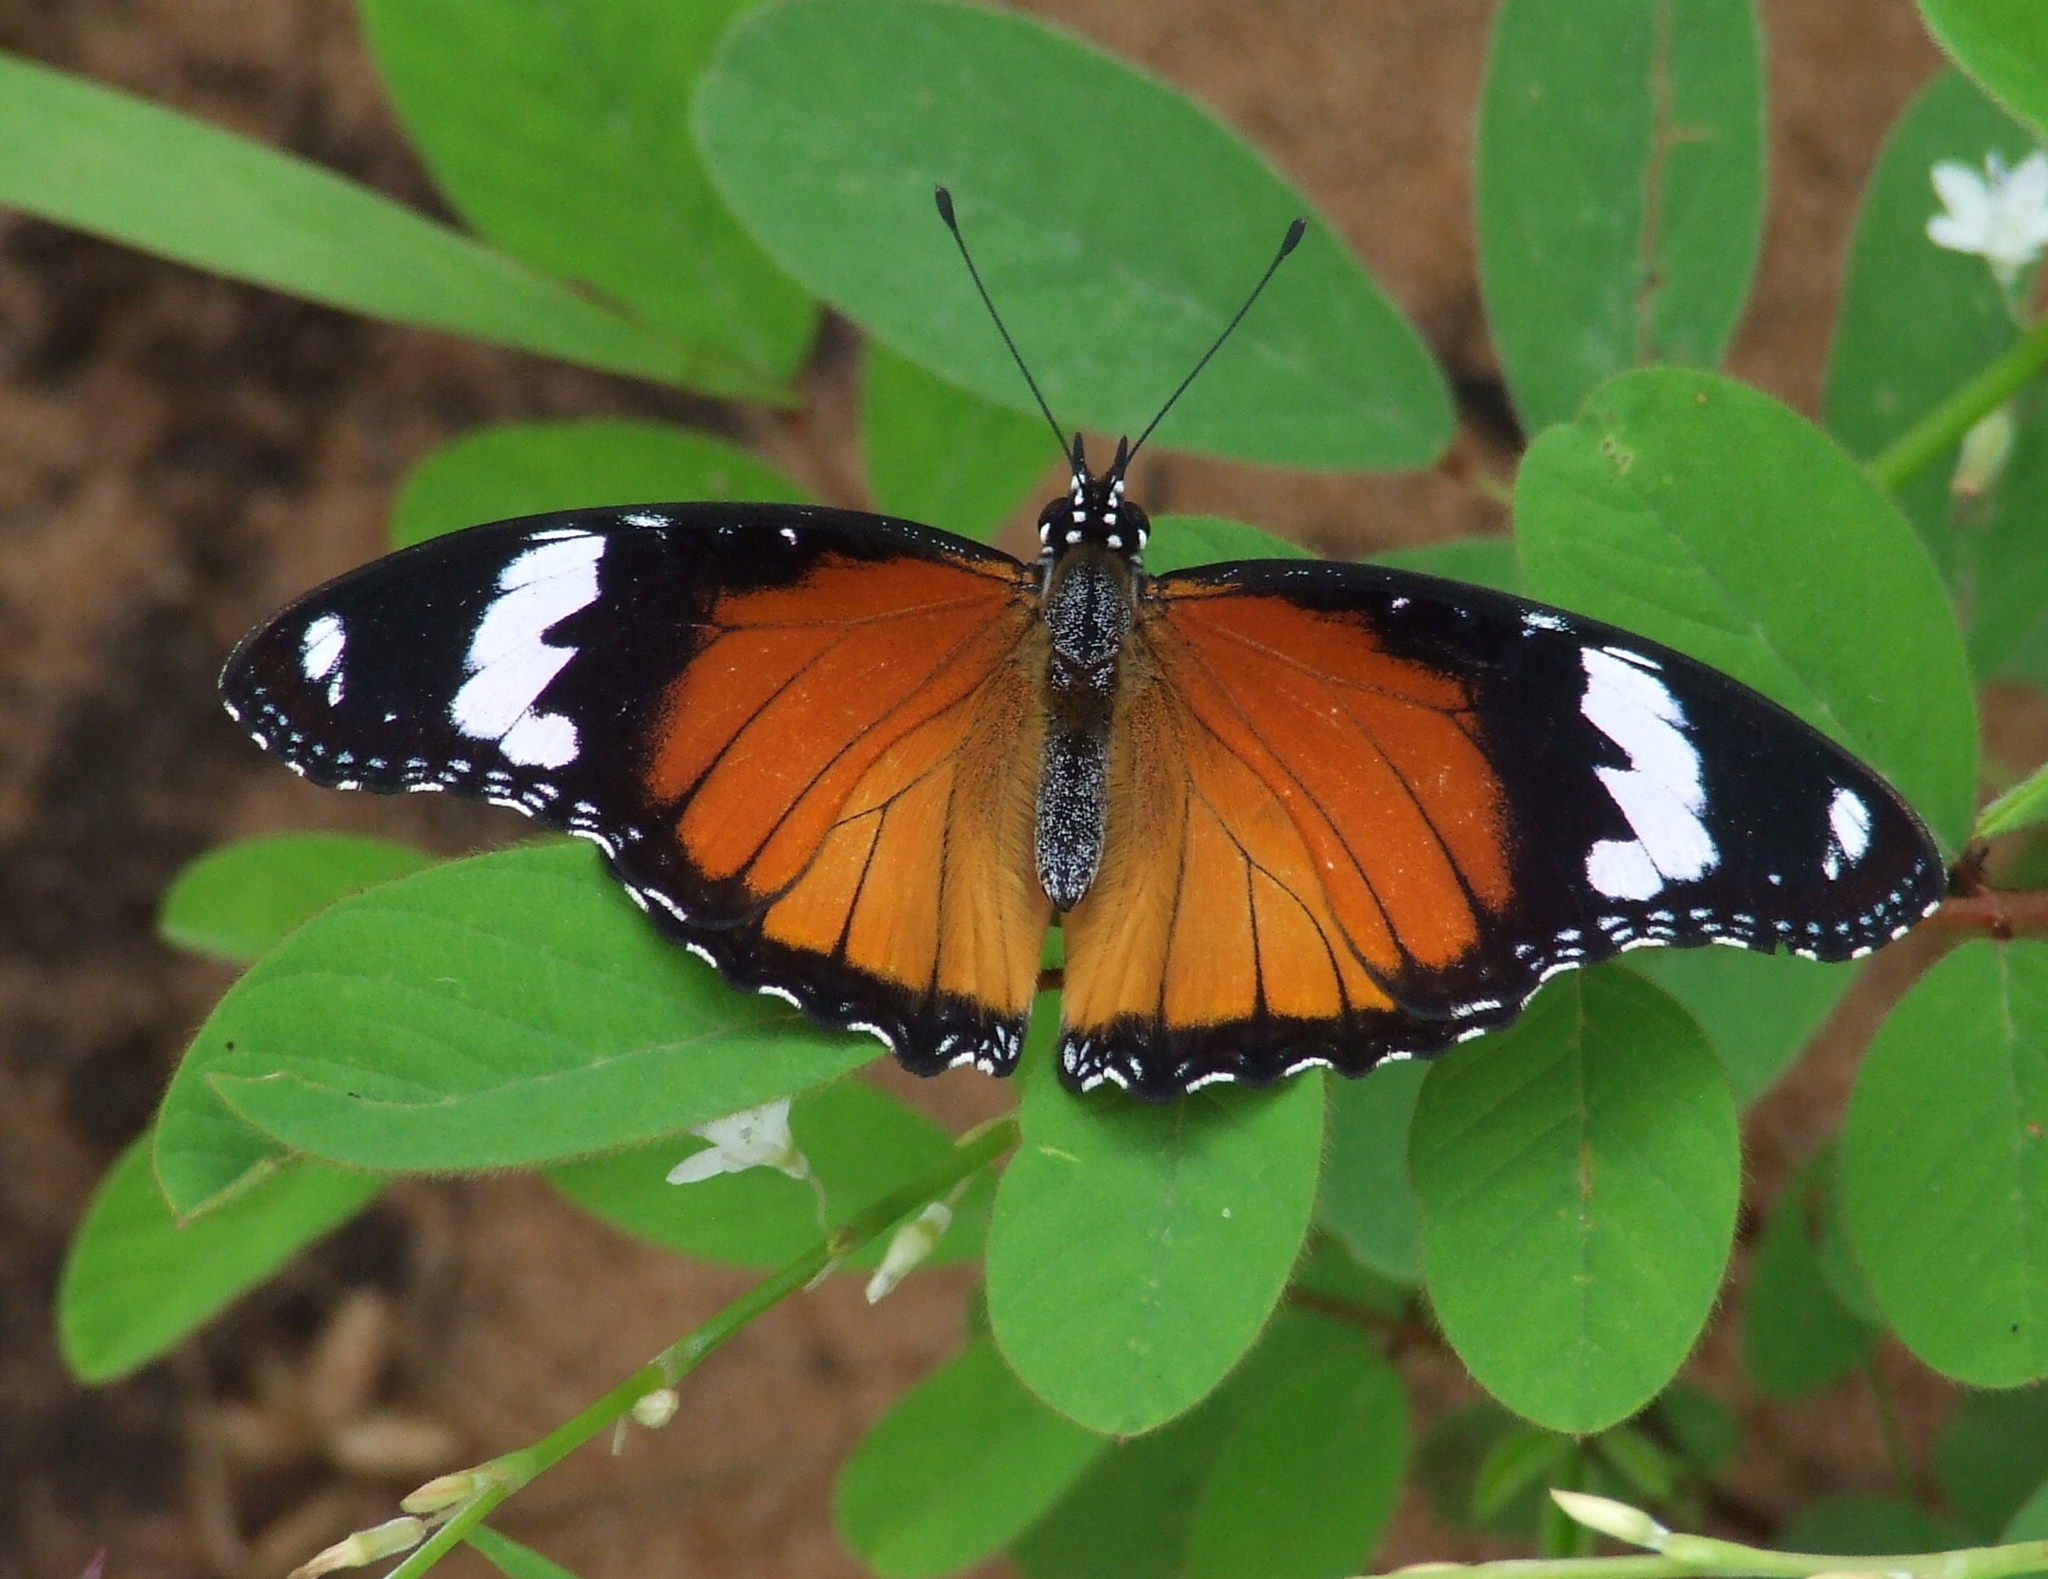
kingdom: Animalia
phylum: Arthropoda
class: Insecta
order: Lepidoptera
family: Nymphalidae
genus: Hypolimnas
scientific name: Hypolimnas misippus
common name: False plain tiger
